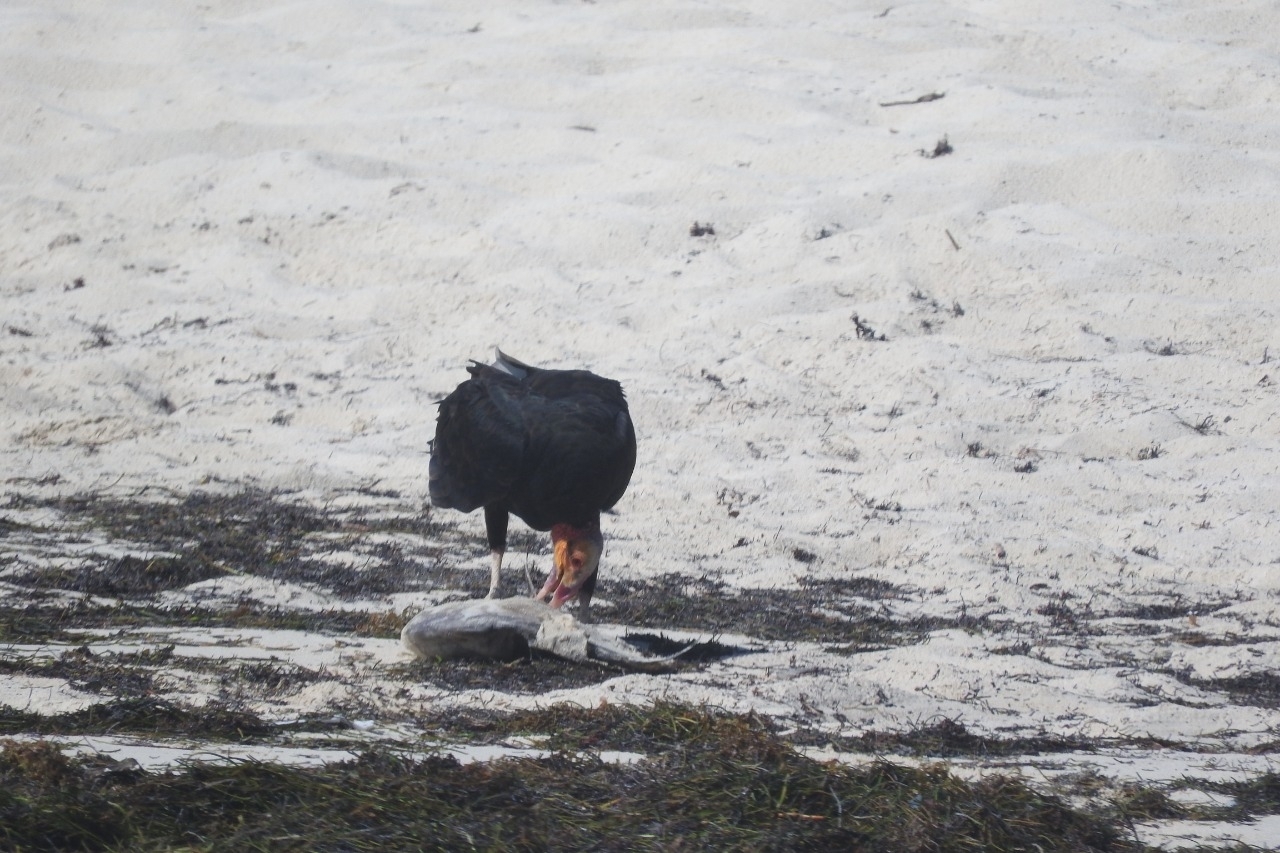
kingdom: Animalia
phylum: Chordata
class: Aves
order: Accipitriformes
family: Cathartidae
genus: Cathartes
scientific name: Cathartes burrovianus
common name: Lesser yellow-headed vulture
